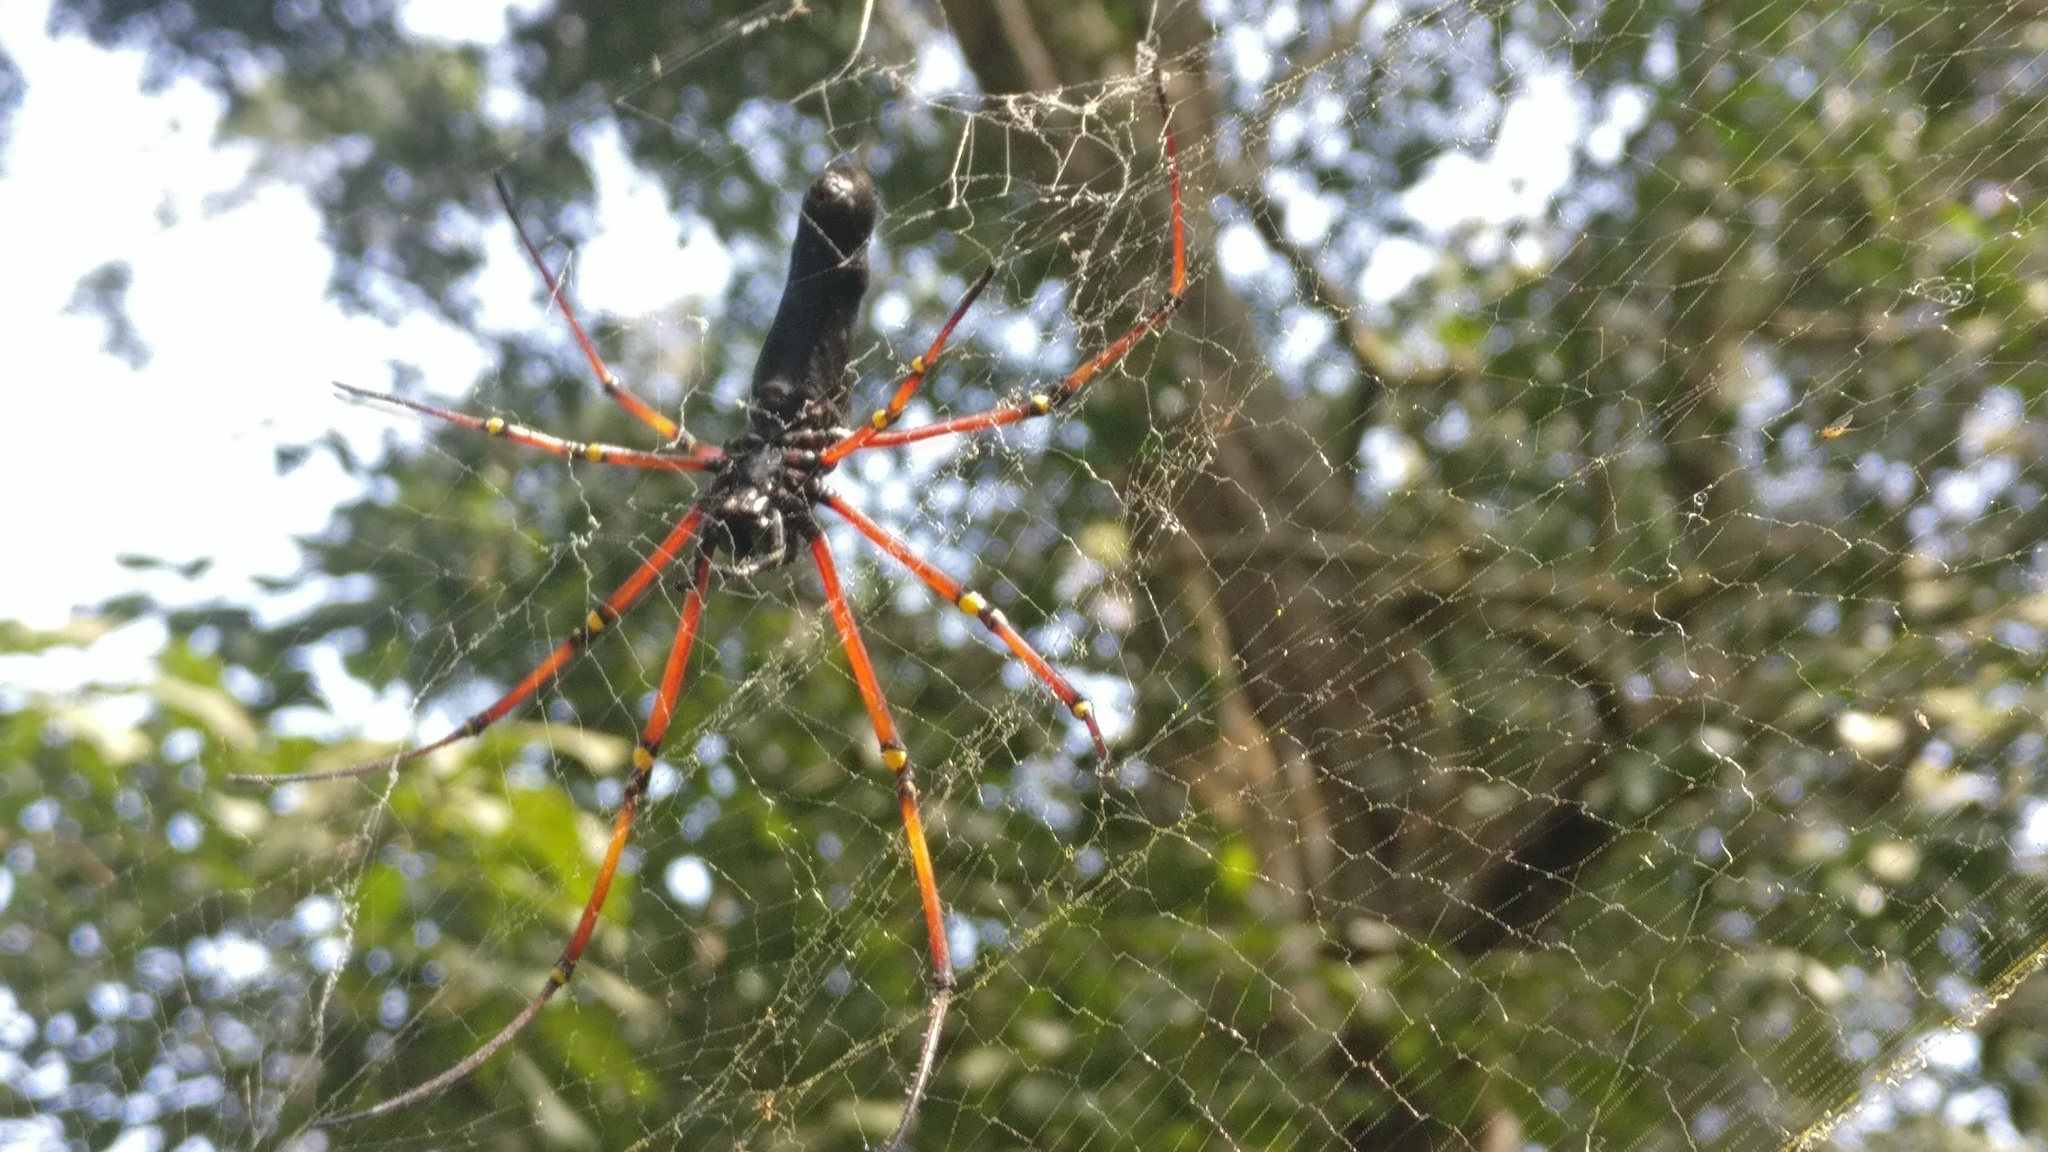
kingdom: Animalia
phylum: Arthropoda
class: Arachnida
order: Araneae
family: Araneidae
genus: Nephila
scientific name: Nephila kuhli
